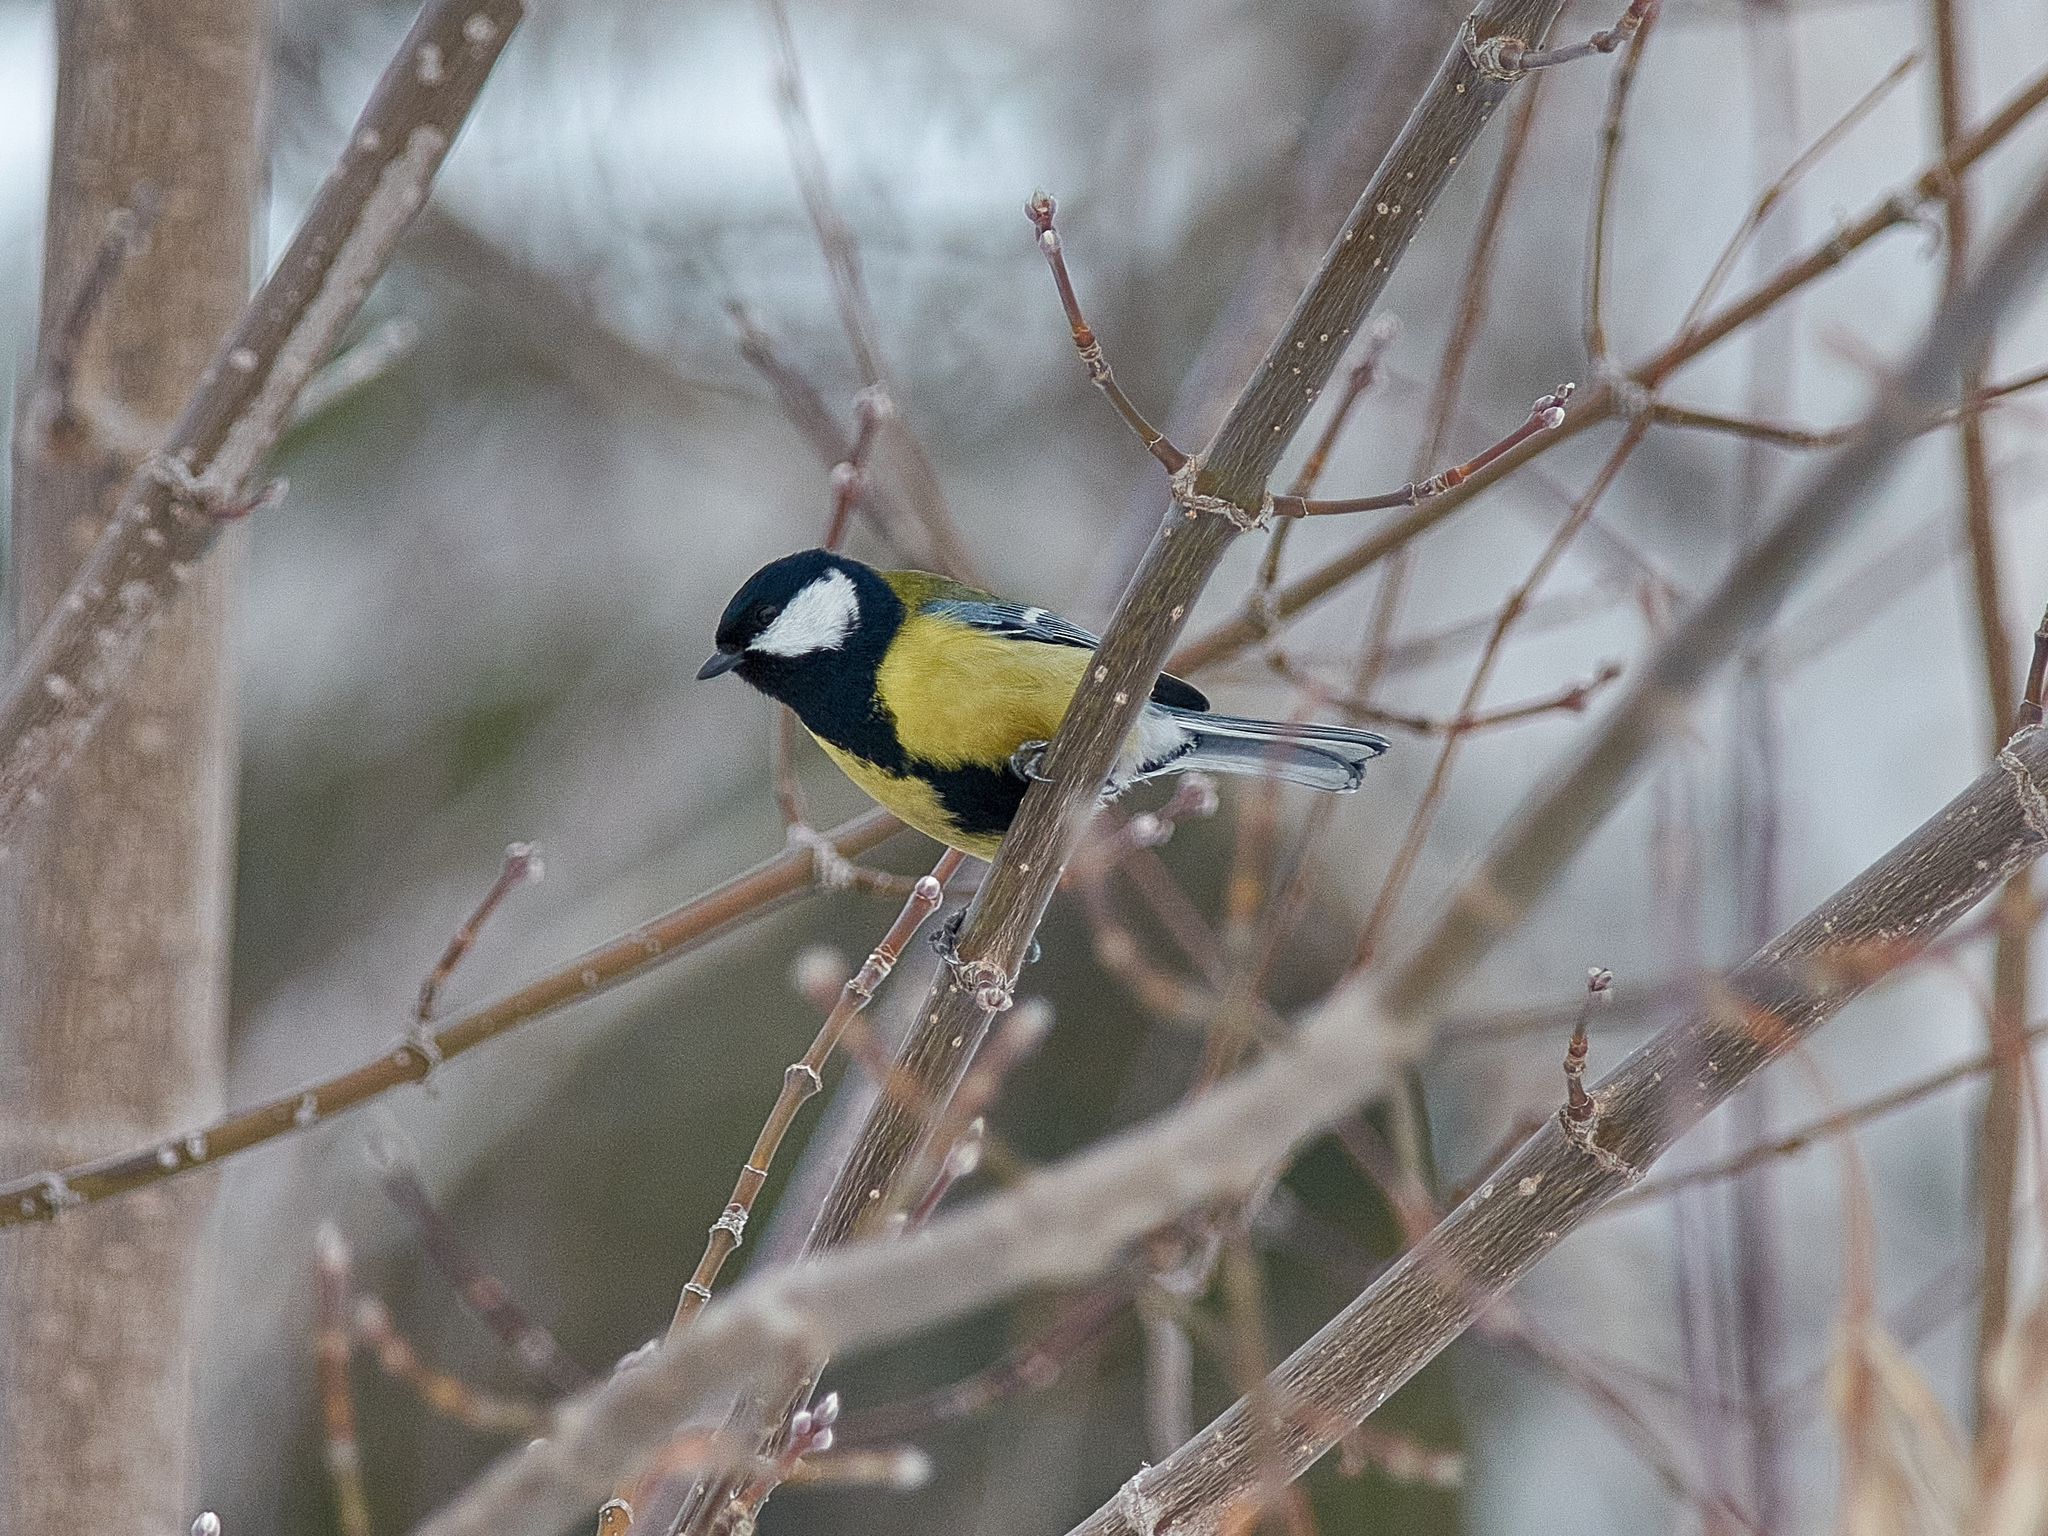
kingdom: Animalia
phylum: Chordata
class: Aves
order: Passeriformes
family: Paridae
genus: Parus
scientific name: Parus major
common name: Great tit
